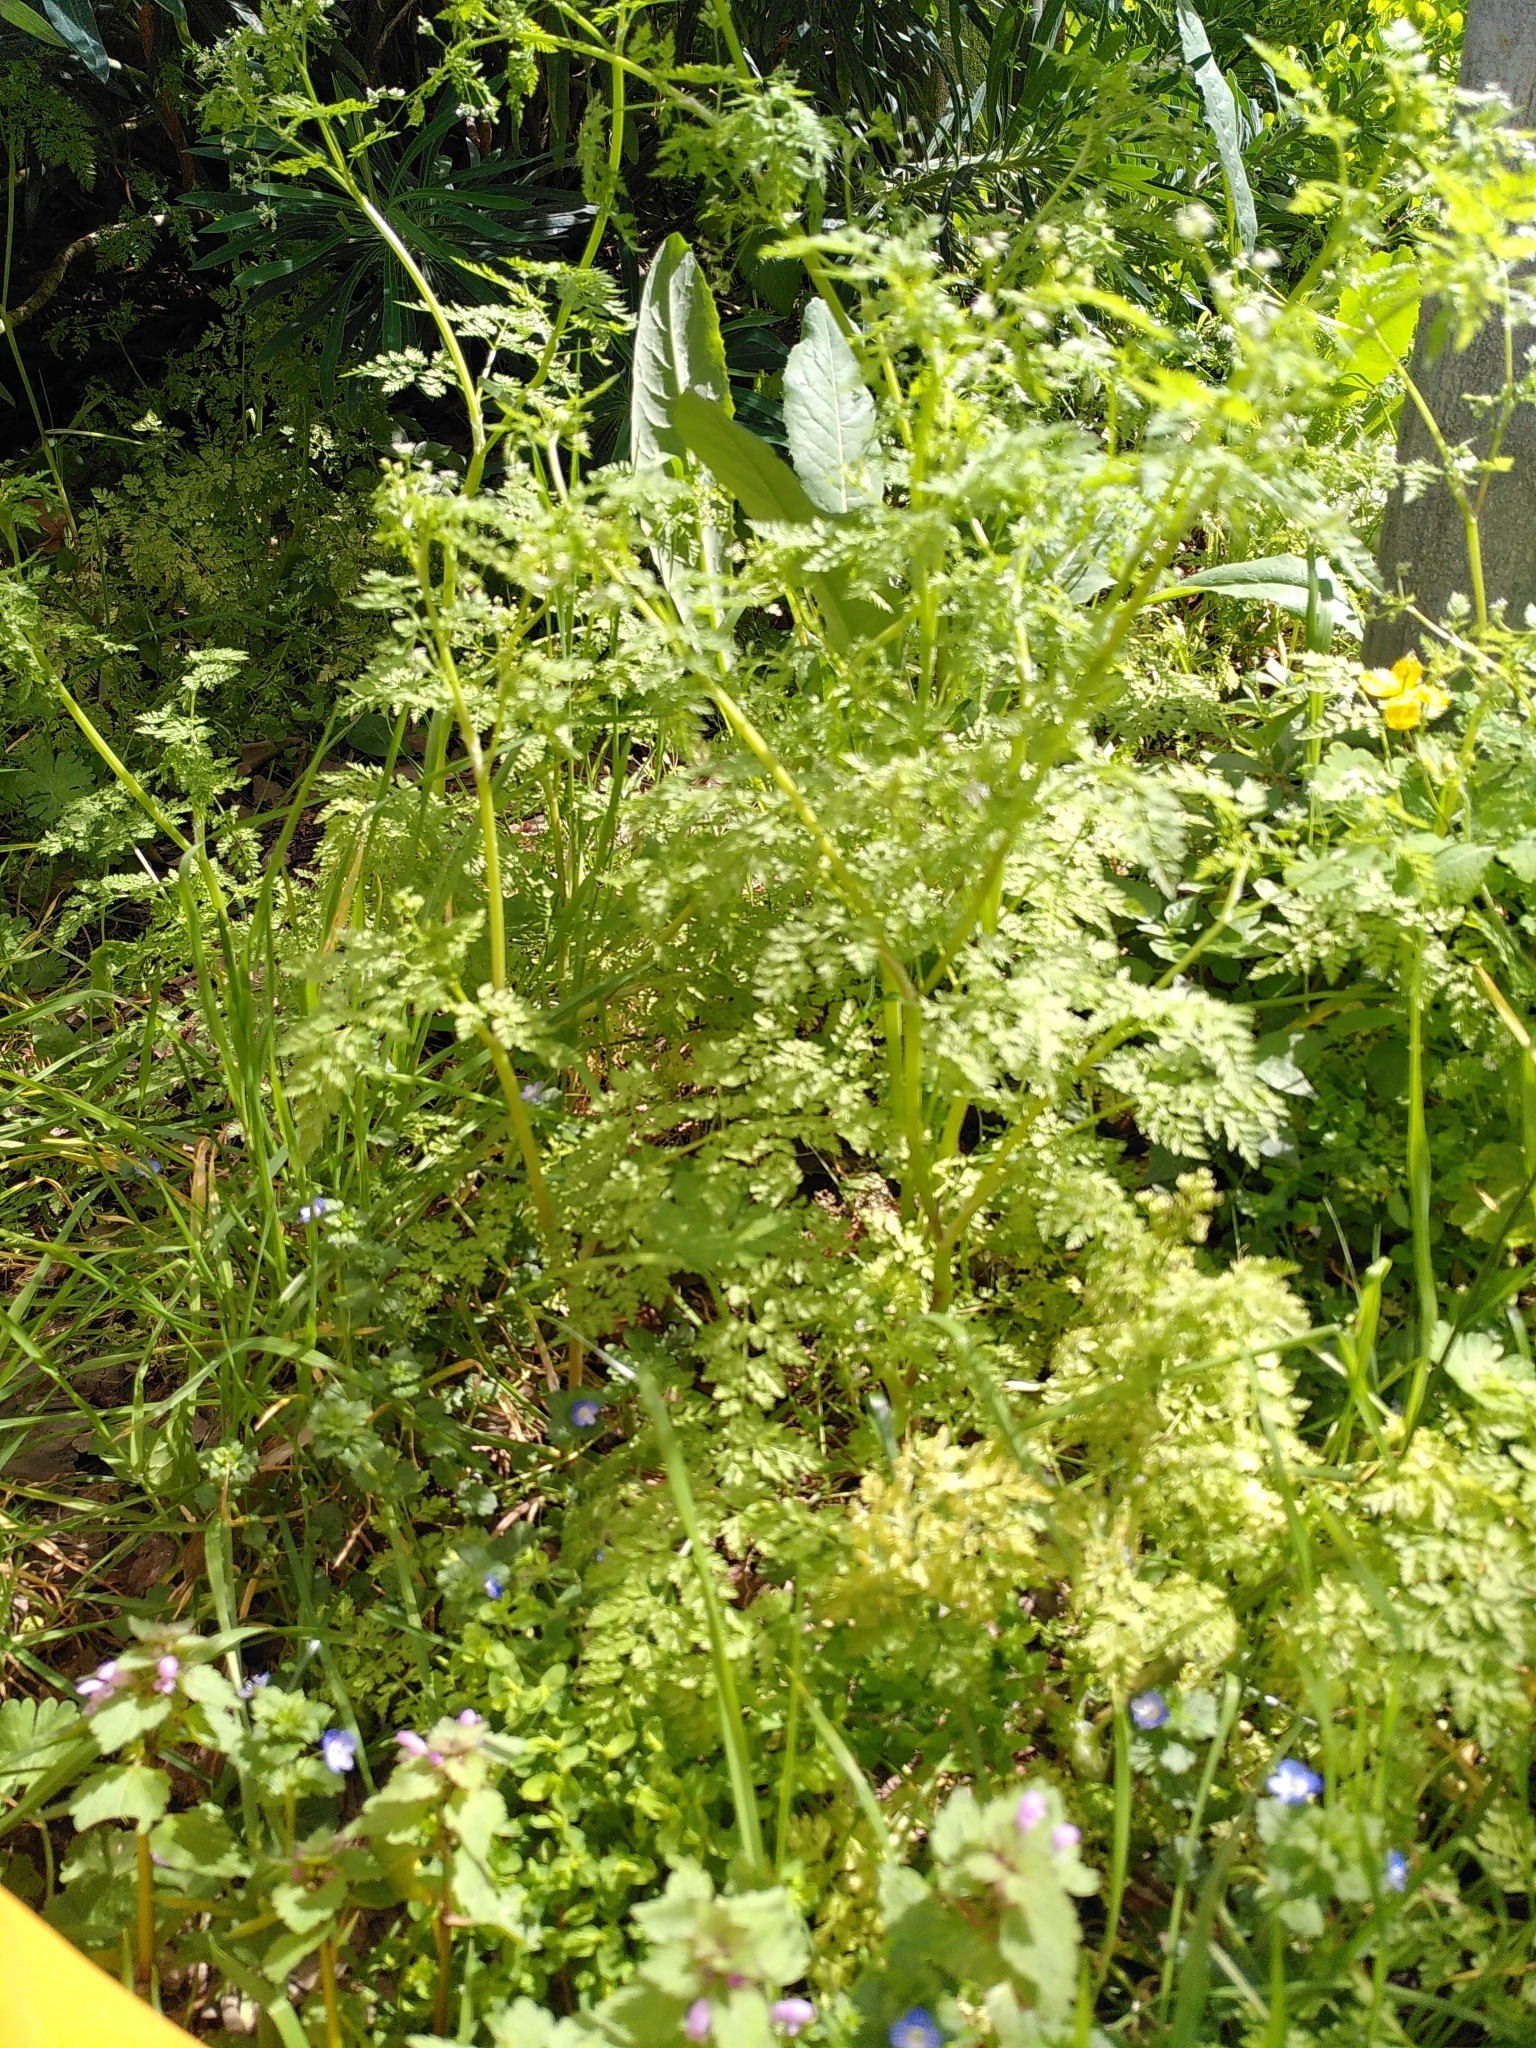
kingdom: Plantae
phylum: Tracheophyta
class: Magnoliopsida
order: Apiales
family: Apiaceae
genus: Anthriscus
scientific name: Anthriscus caucalis
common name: Bur chervil
